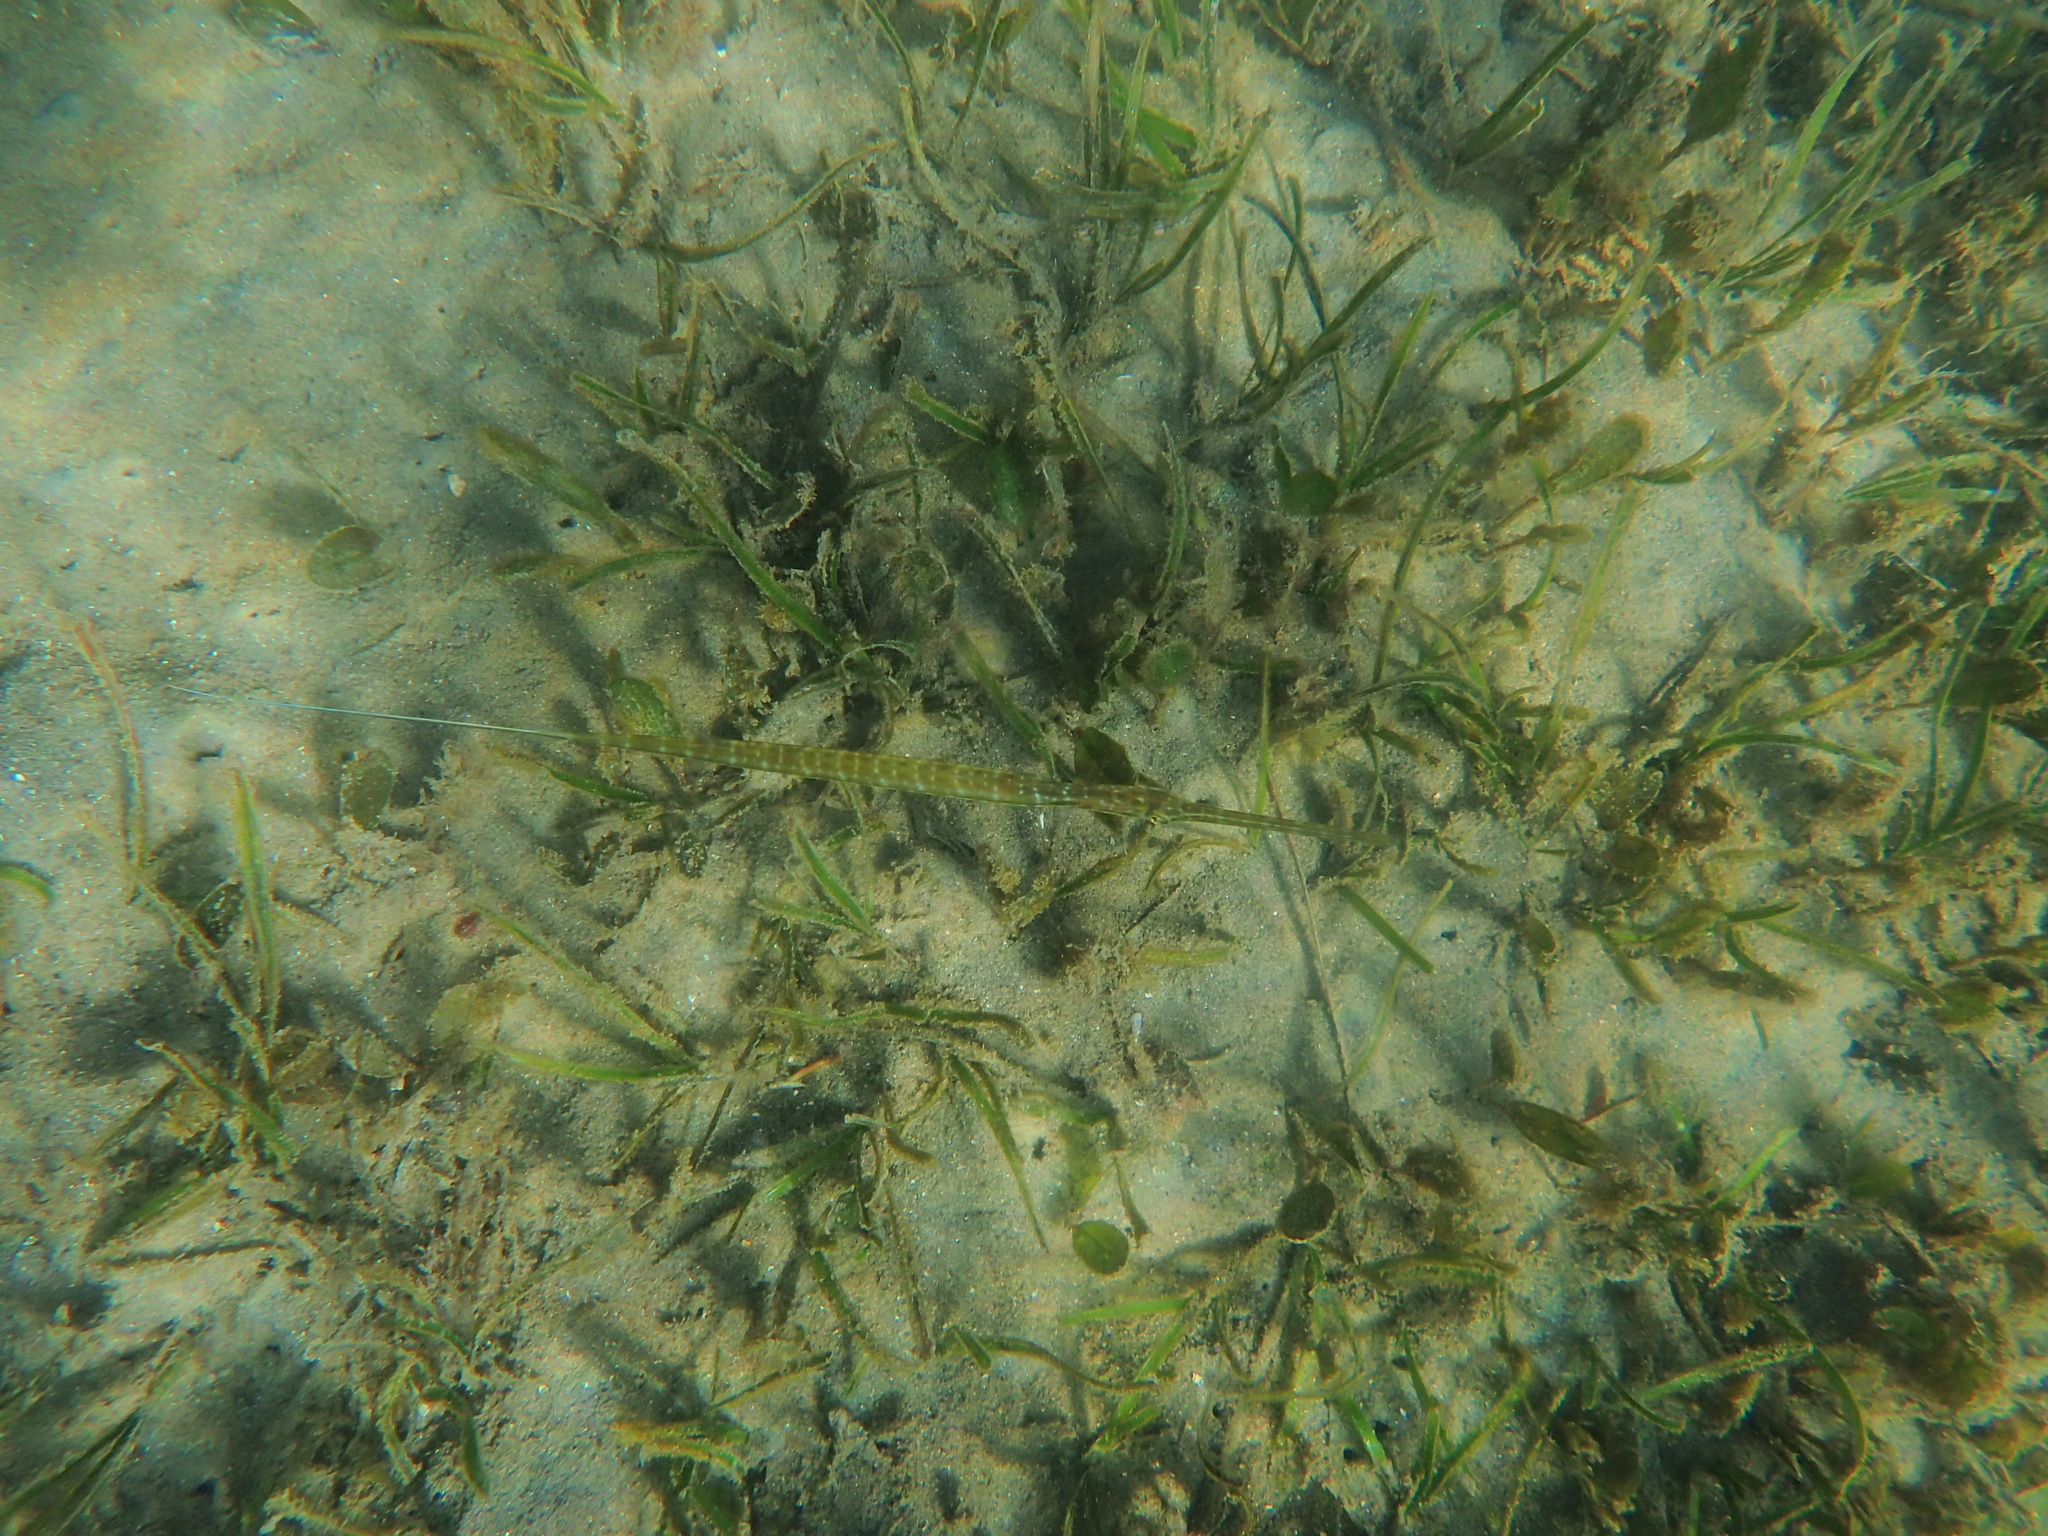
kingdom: Animalia
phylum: Chordata
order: Syngnathiformes
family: Fistulariidae
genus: Fistularia
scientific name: Fistularia commersonii
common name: Bluespotted cornetfish
